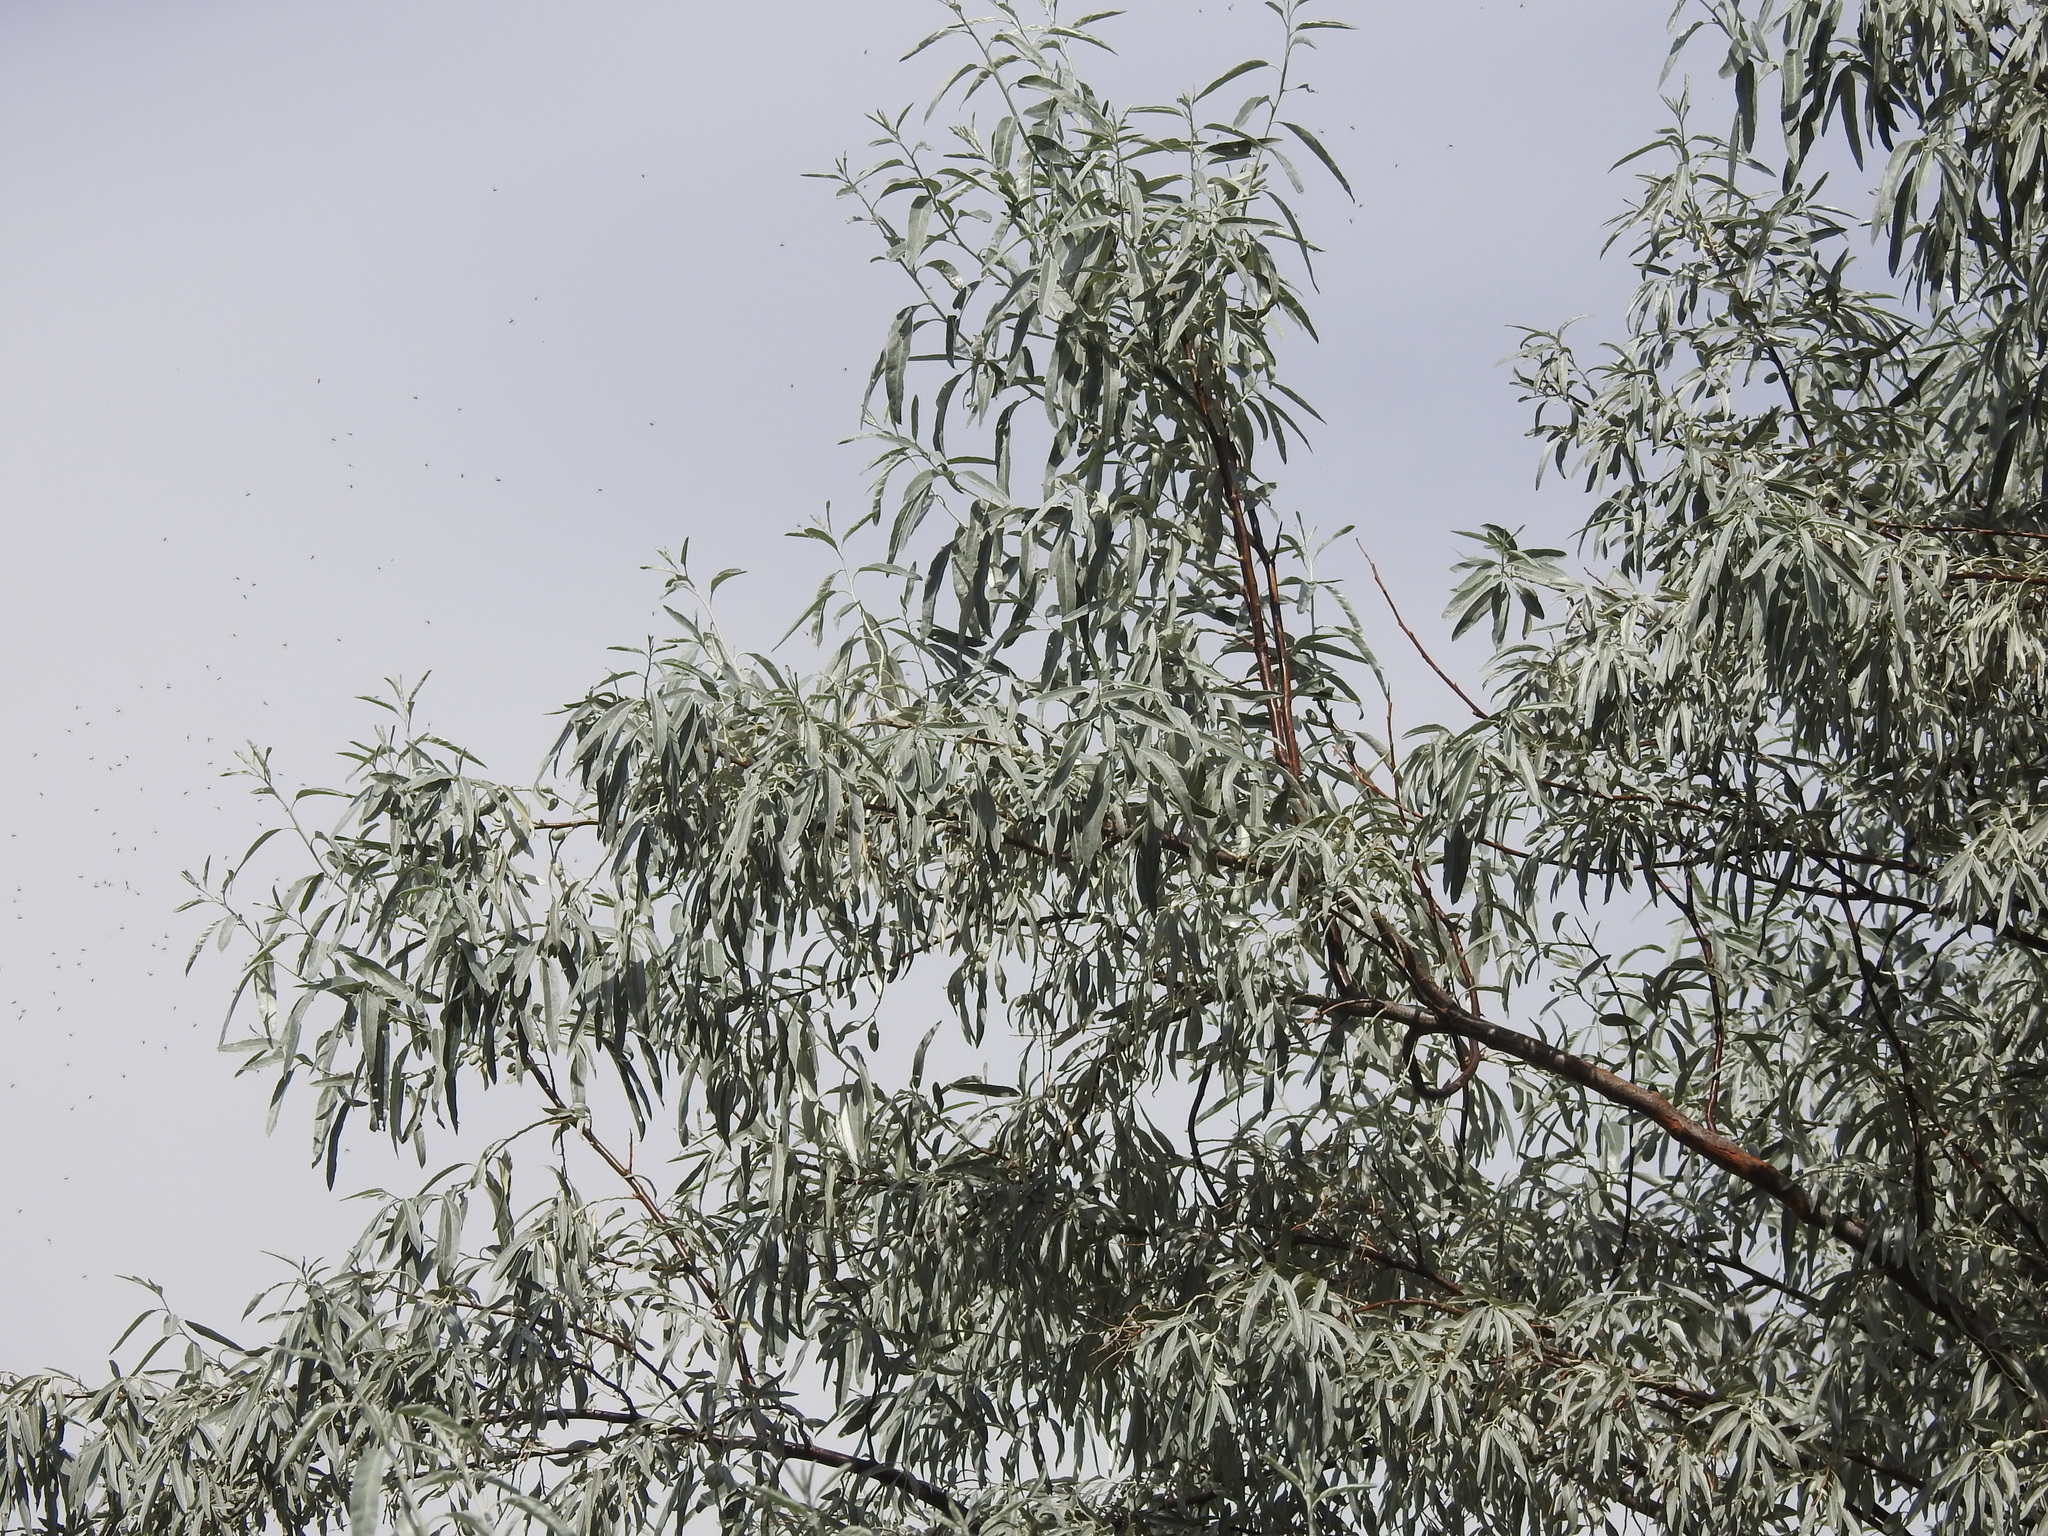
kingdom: Plantae
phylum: Tracheophyta
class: Magnoliopsida
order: Rosales
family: Elaeagnaceae
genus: Elaeagnus
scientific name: Elaeagnus angustifolia
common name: Russian olive
